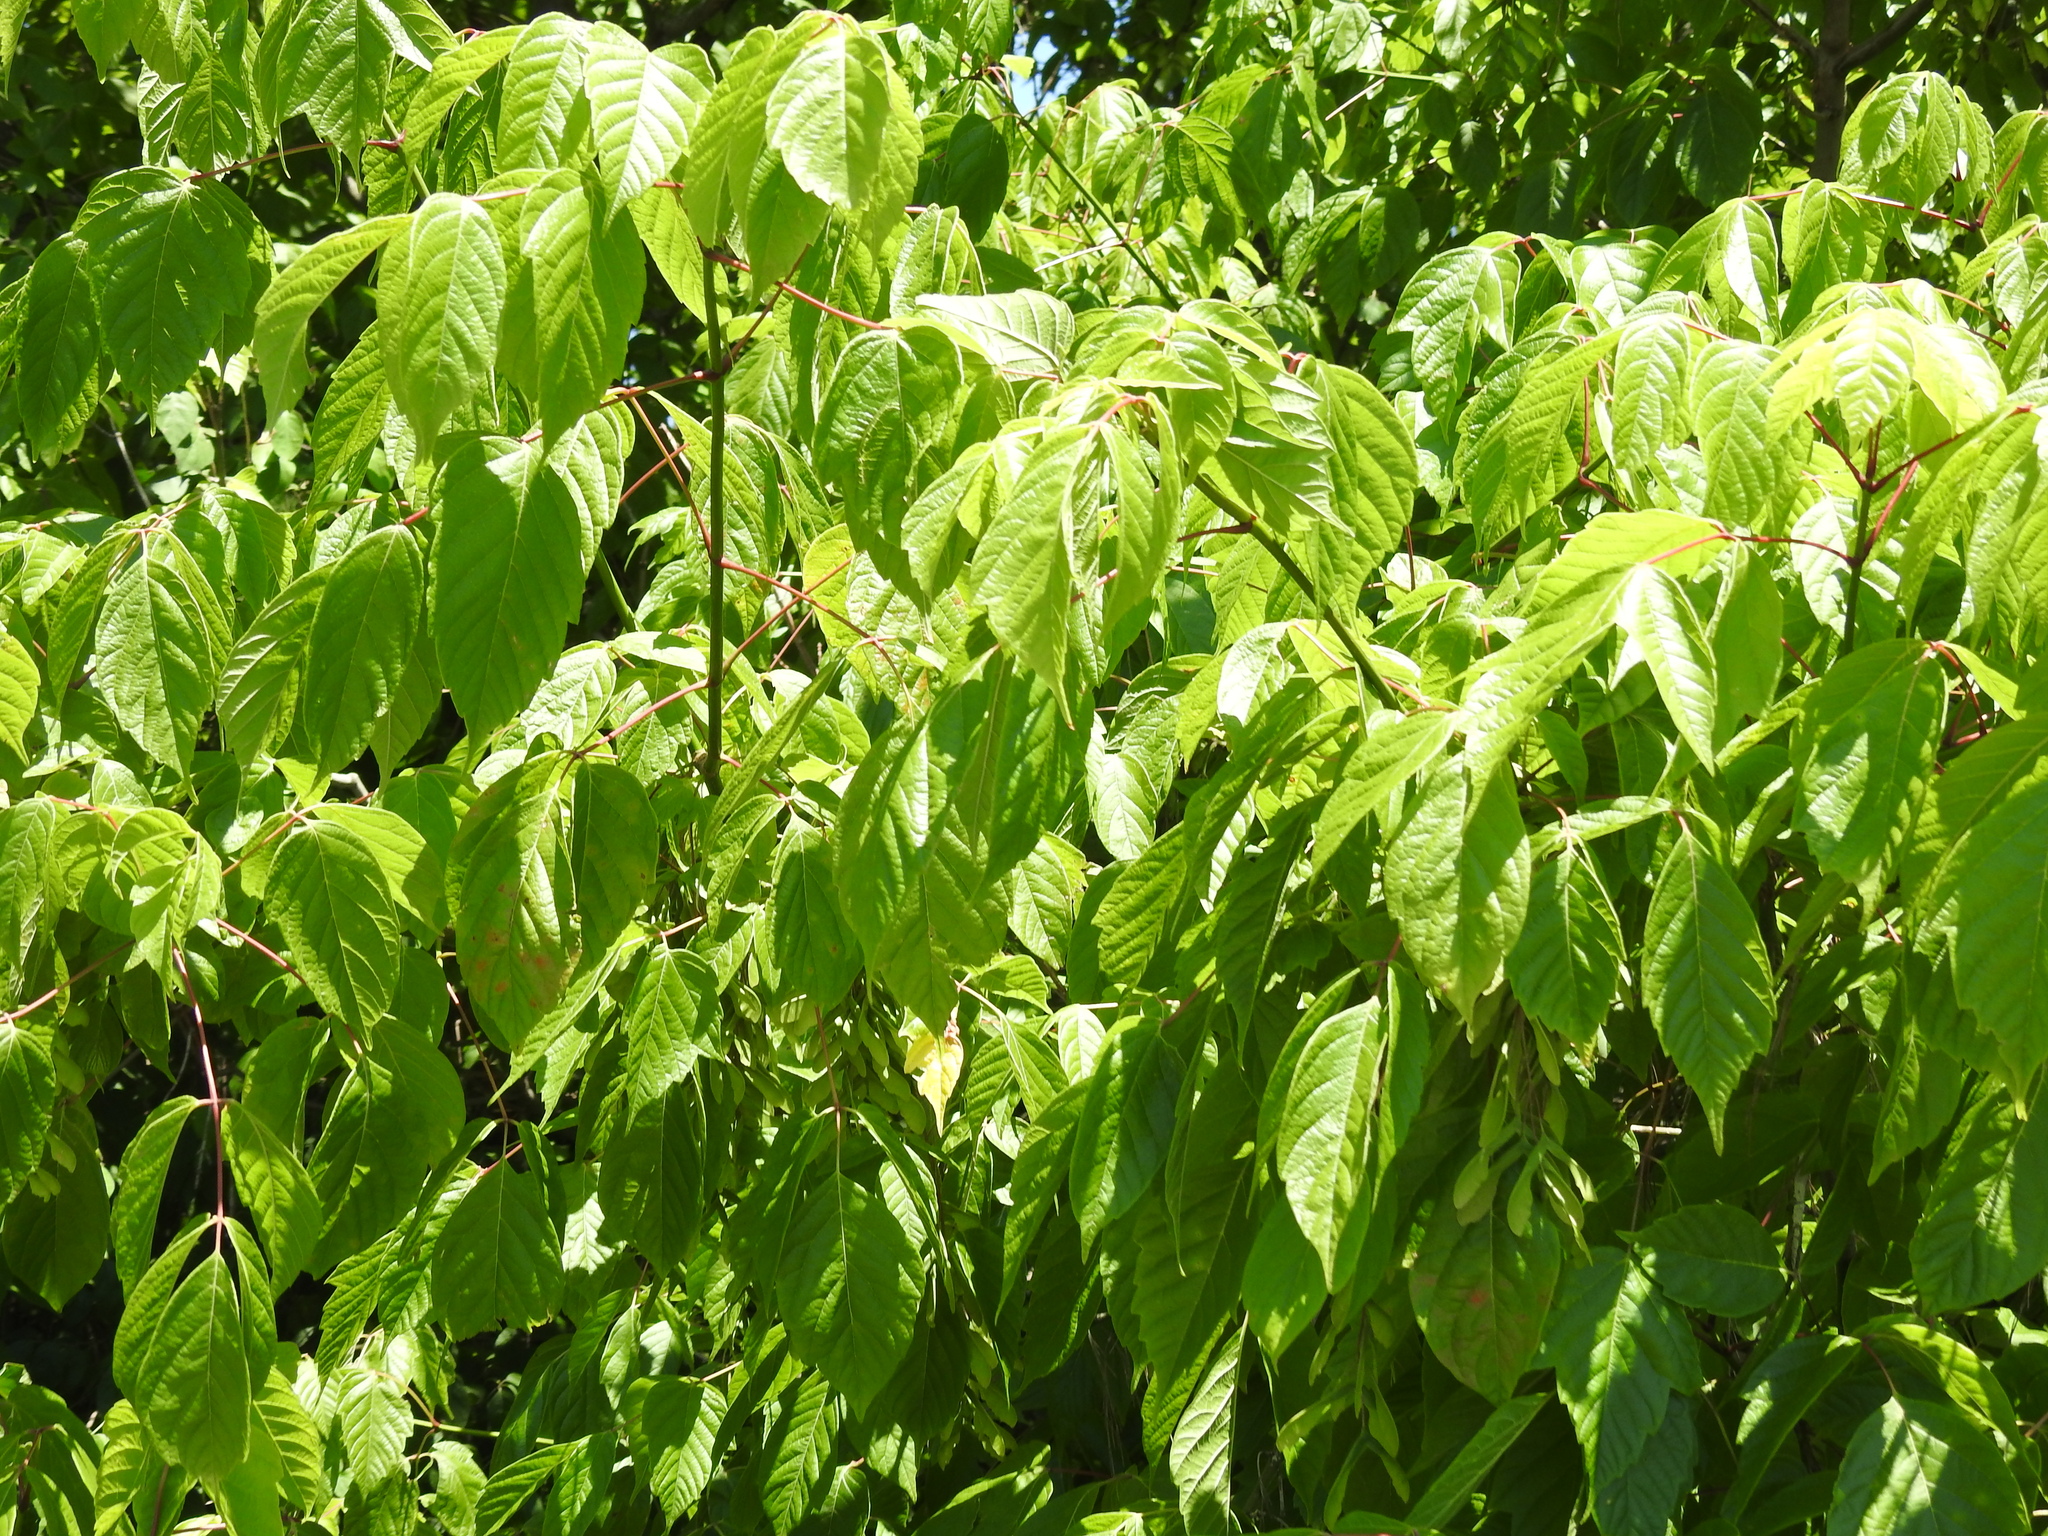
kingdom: Plantae
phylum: Tracheophyta
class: Magnoliopsida
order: Sapindales
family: Sapindaceae
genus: Acer
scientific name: Acer negundo
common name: Ashleaf maple
